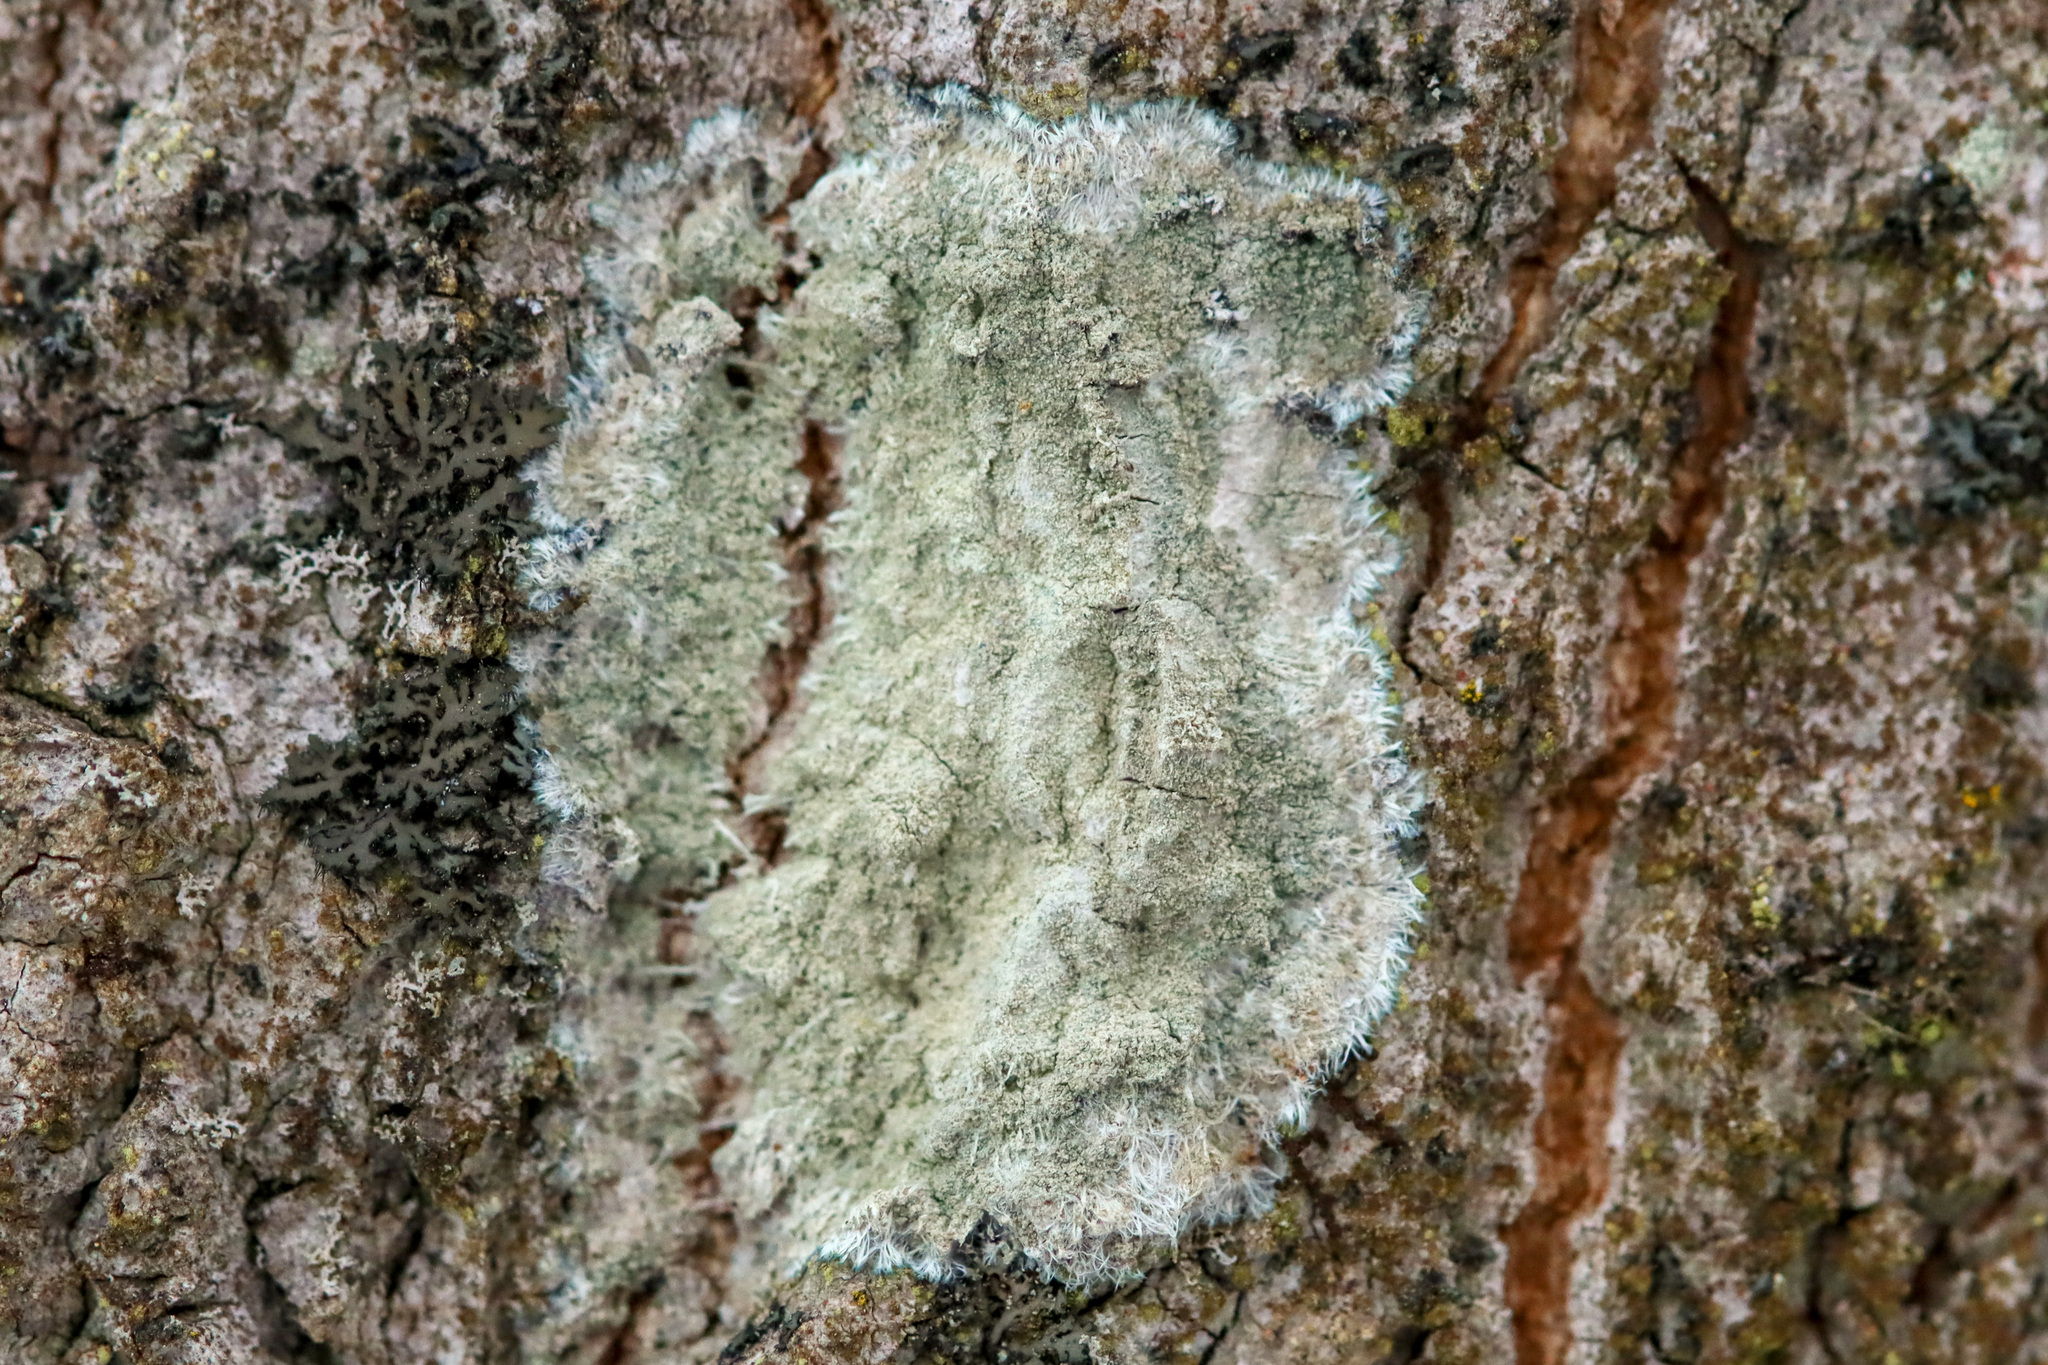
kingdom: Fungi
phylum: Ascomycota
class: Lecanoromycetes
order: Pertusariales
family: Pertusariaceae
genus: Verseghya
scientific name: Verseghya thysanophora
